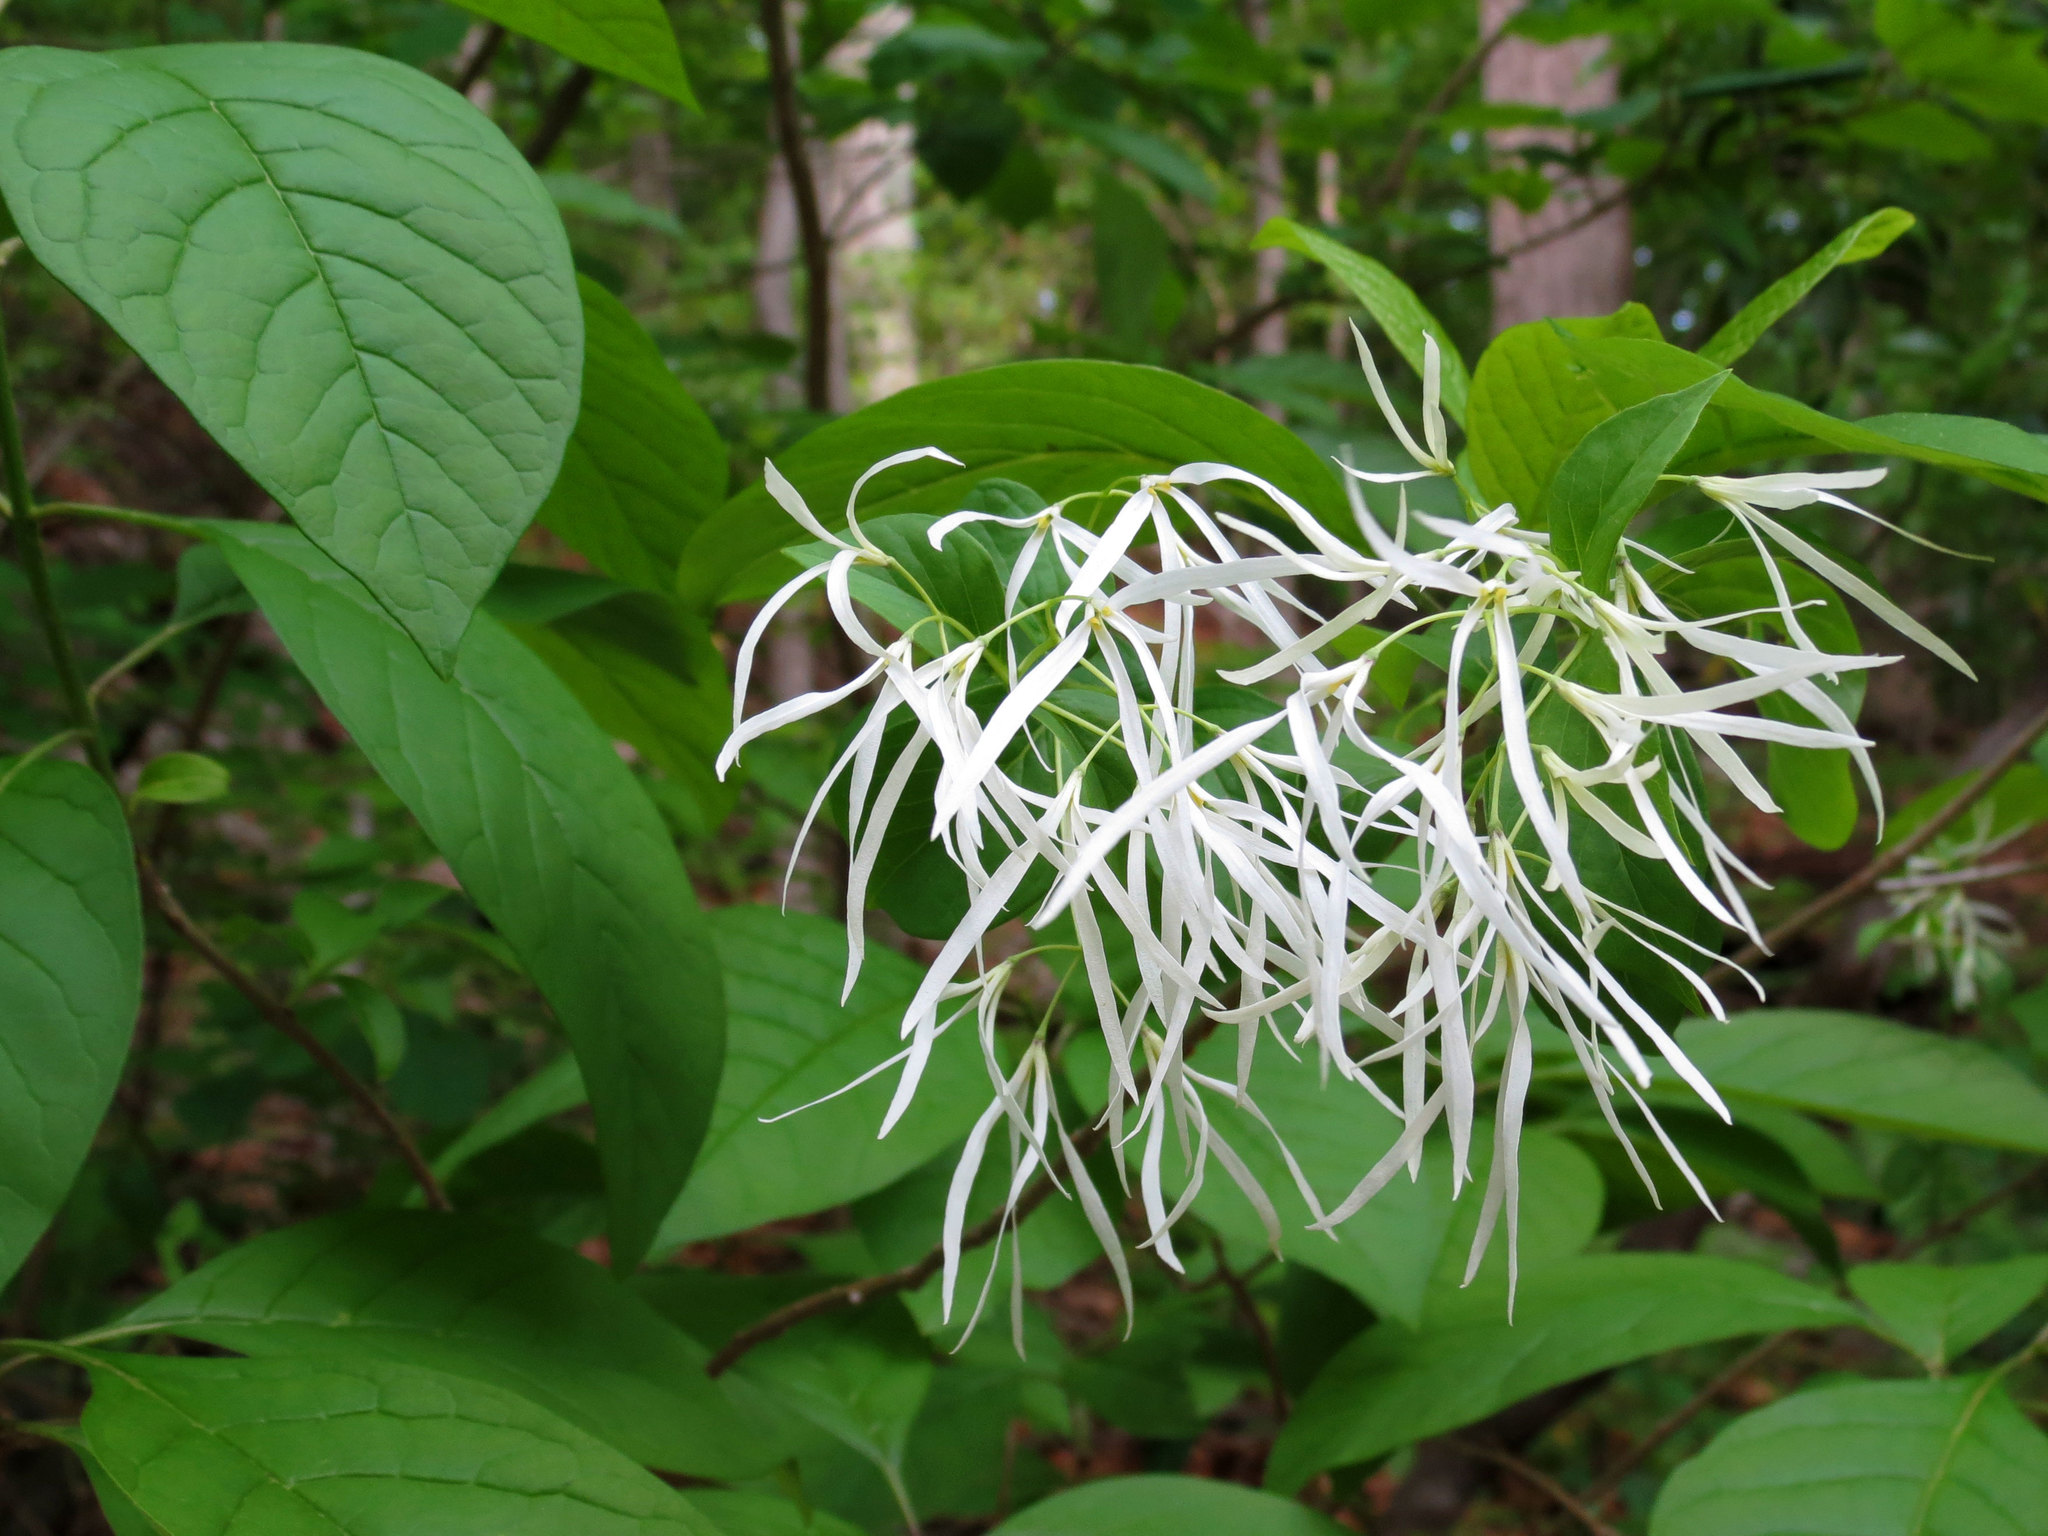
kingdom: Plantae
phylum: Tracheophyta
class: Magnoliopsida
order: Lamiales
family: Oleaceae
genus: Chionanthus
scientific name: Chionanthus virginicus
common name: American fringetree
